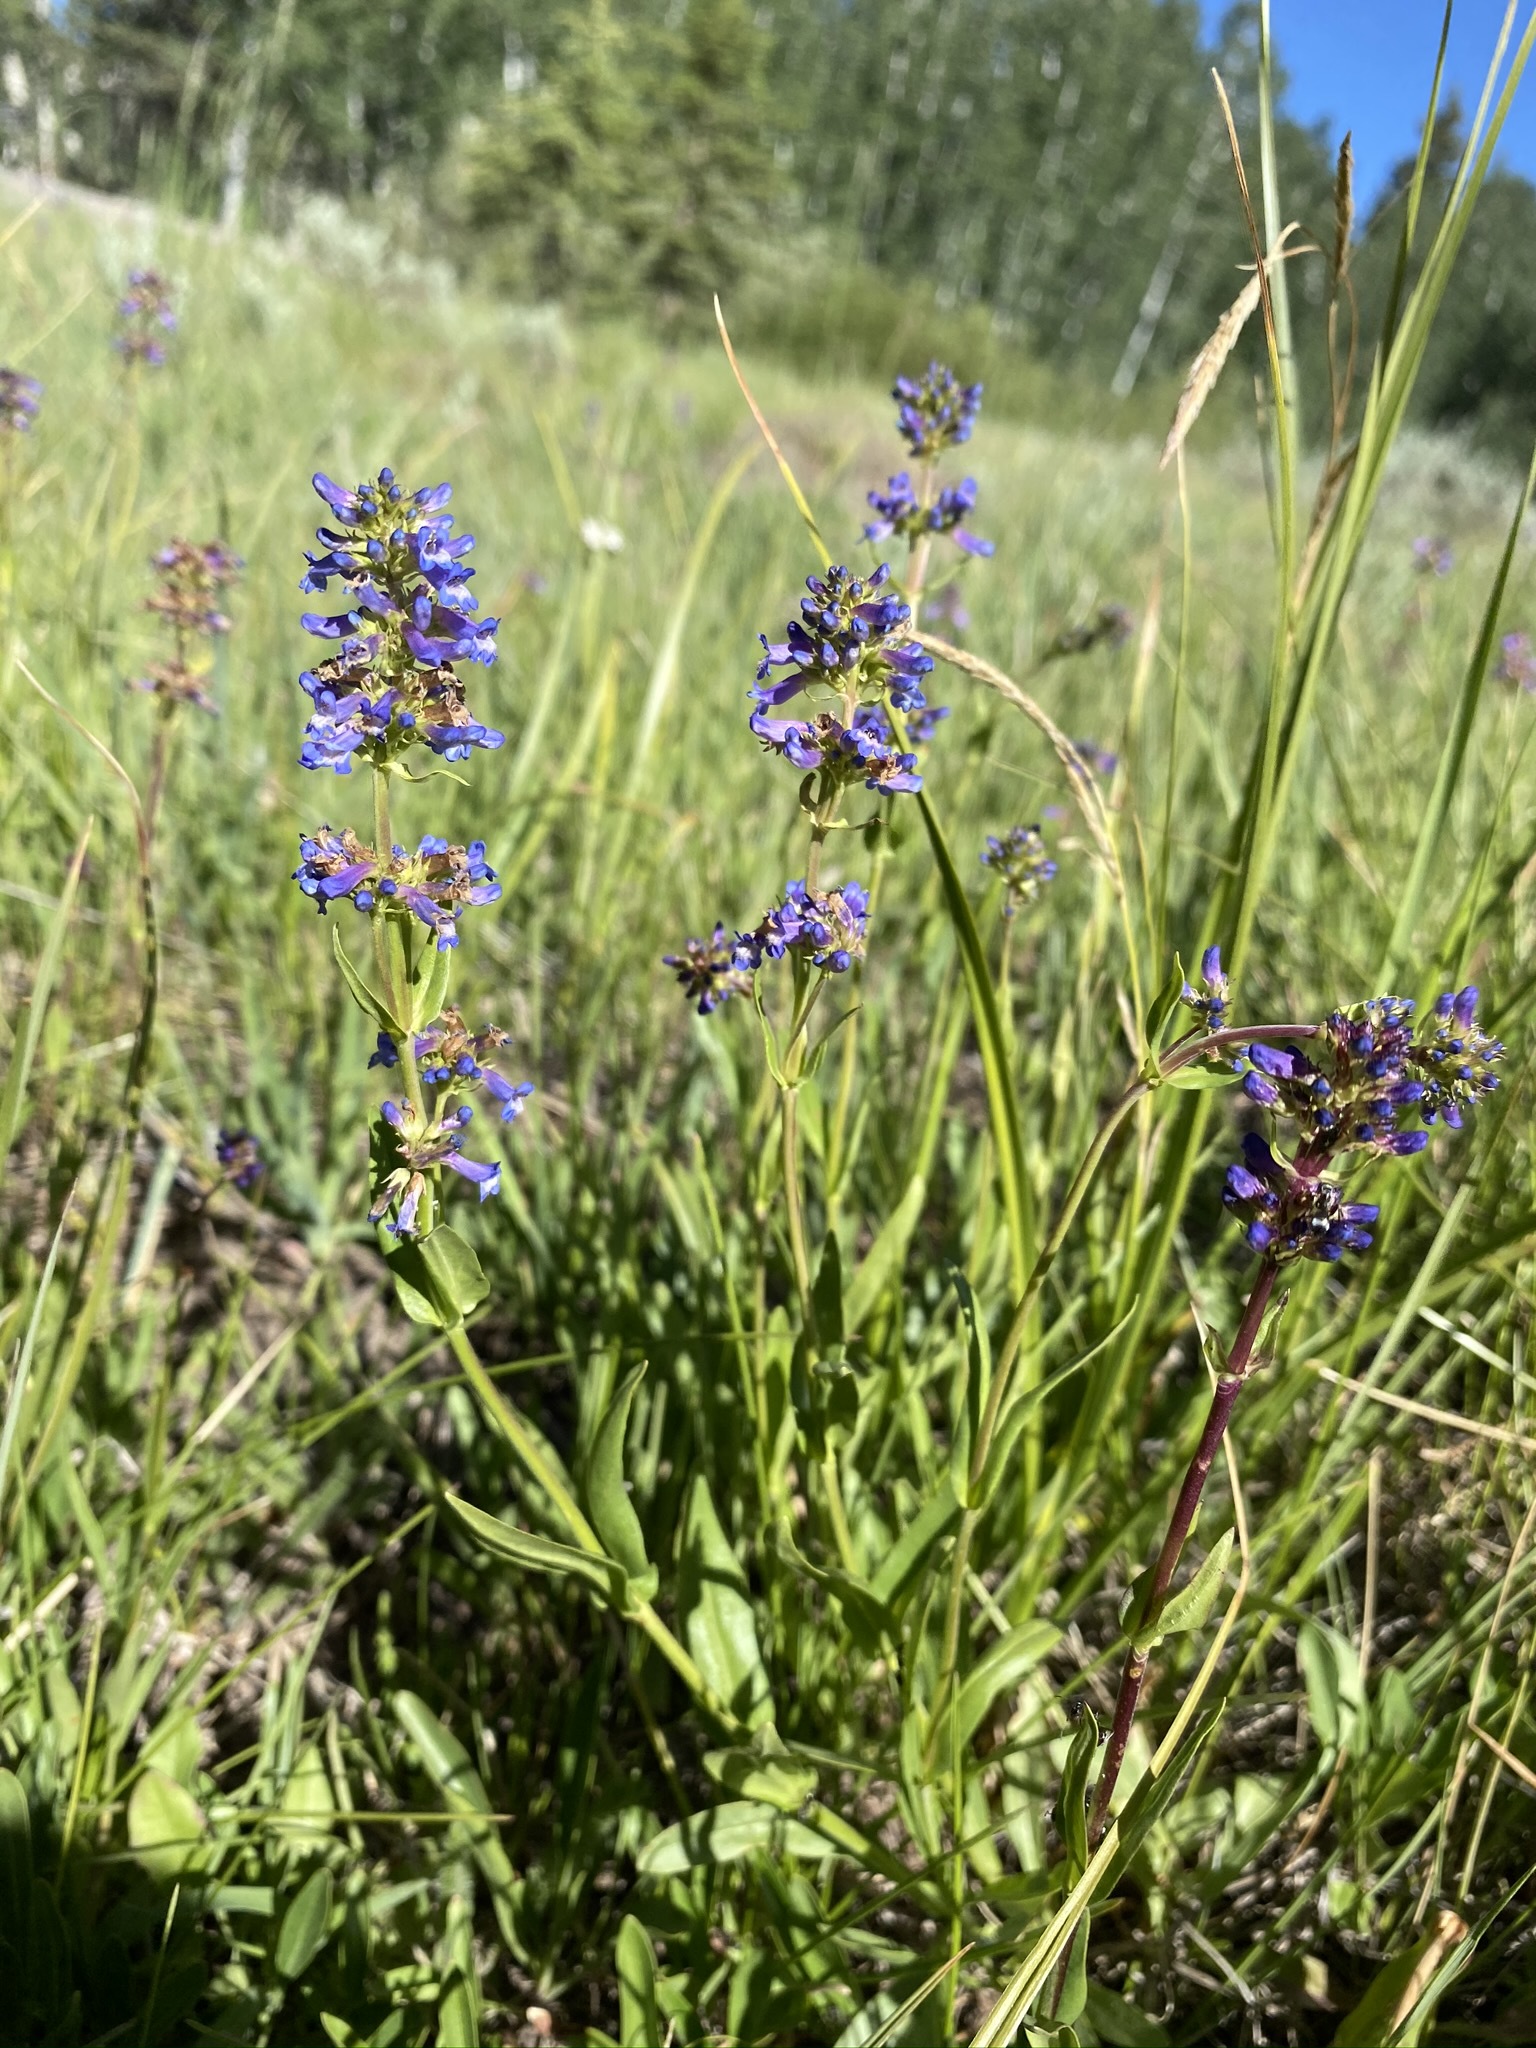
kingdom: Plantae
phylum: Tracheophyta
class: Magnoliopsida
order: Lamiales
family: Plantaginaceae
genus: Penstemon
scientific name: Penstemon rydbergii
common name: Rydberg's beardtongue
